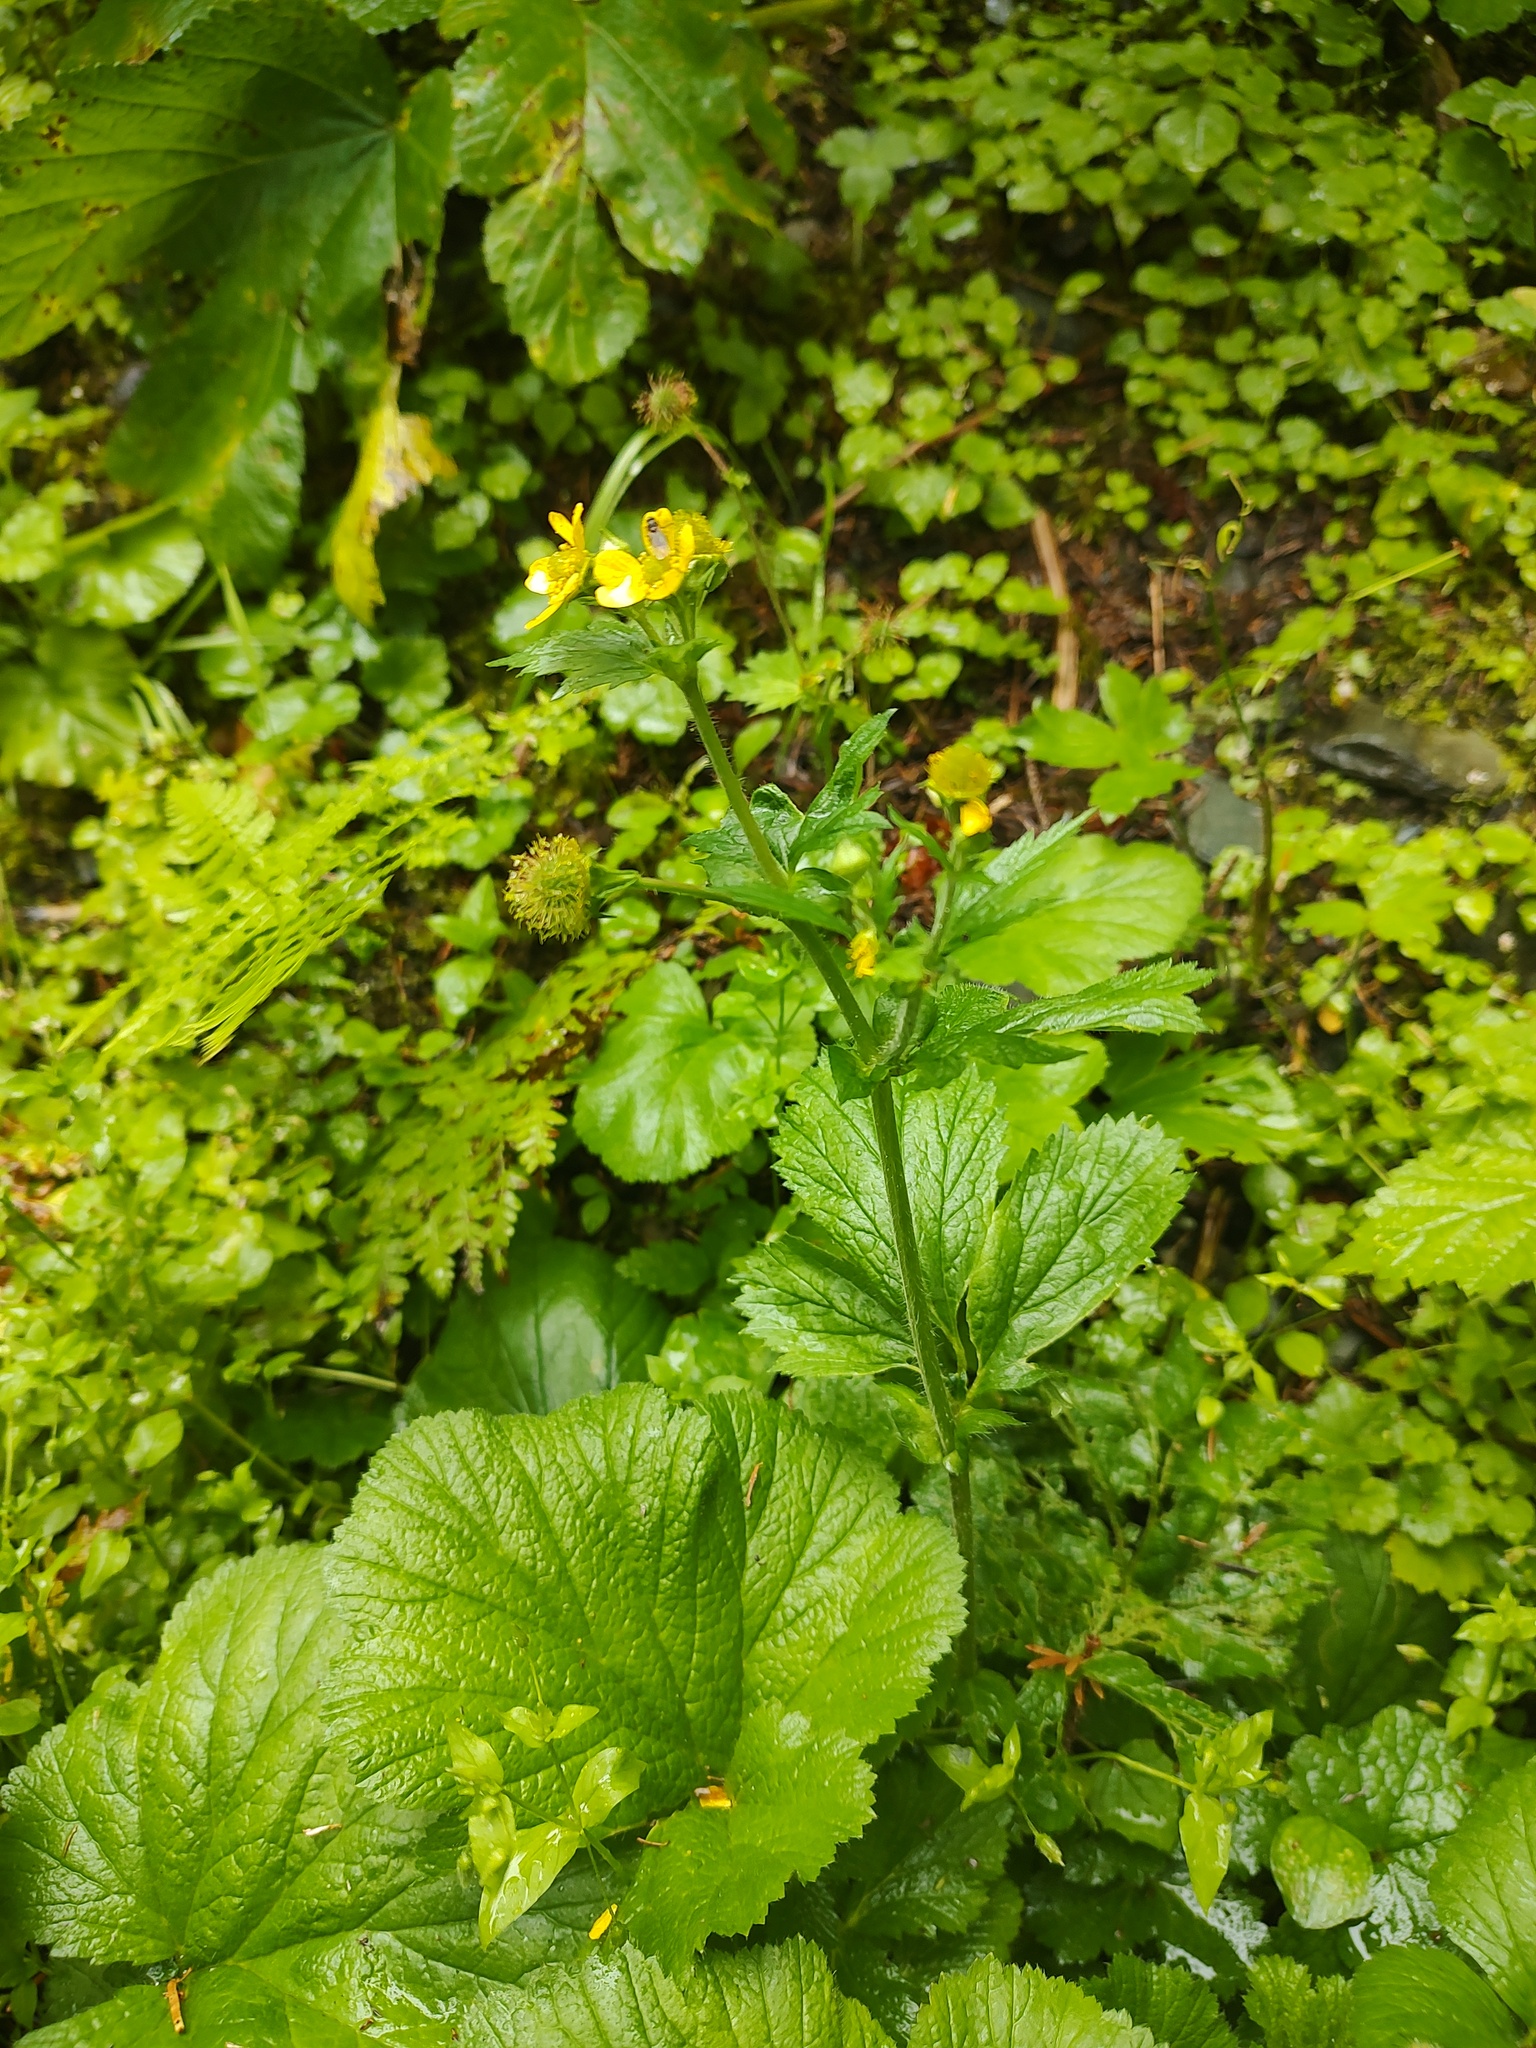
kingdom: Plantae
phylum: Tracheophyta
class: Magnoliopsida
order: Rosales
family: Rosaceae
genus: Geum
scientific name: Geum macrophyllum
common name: Large-leaved avens
